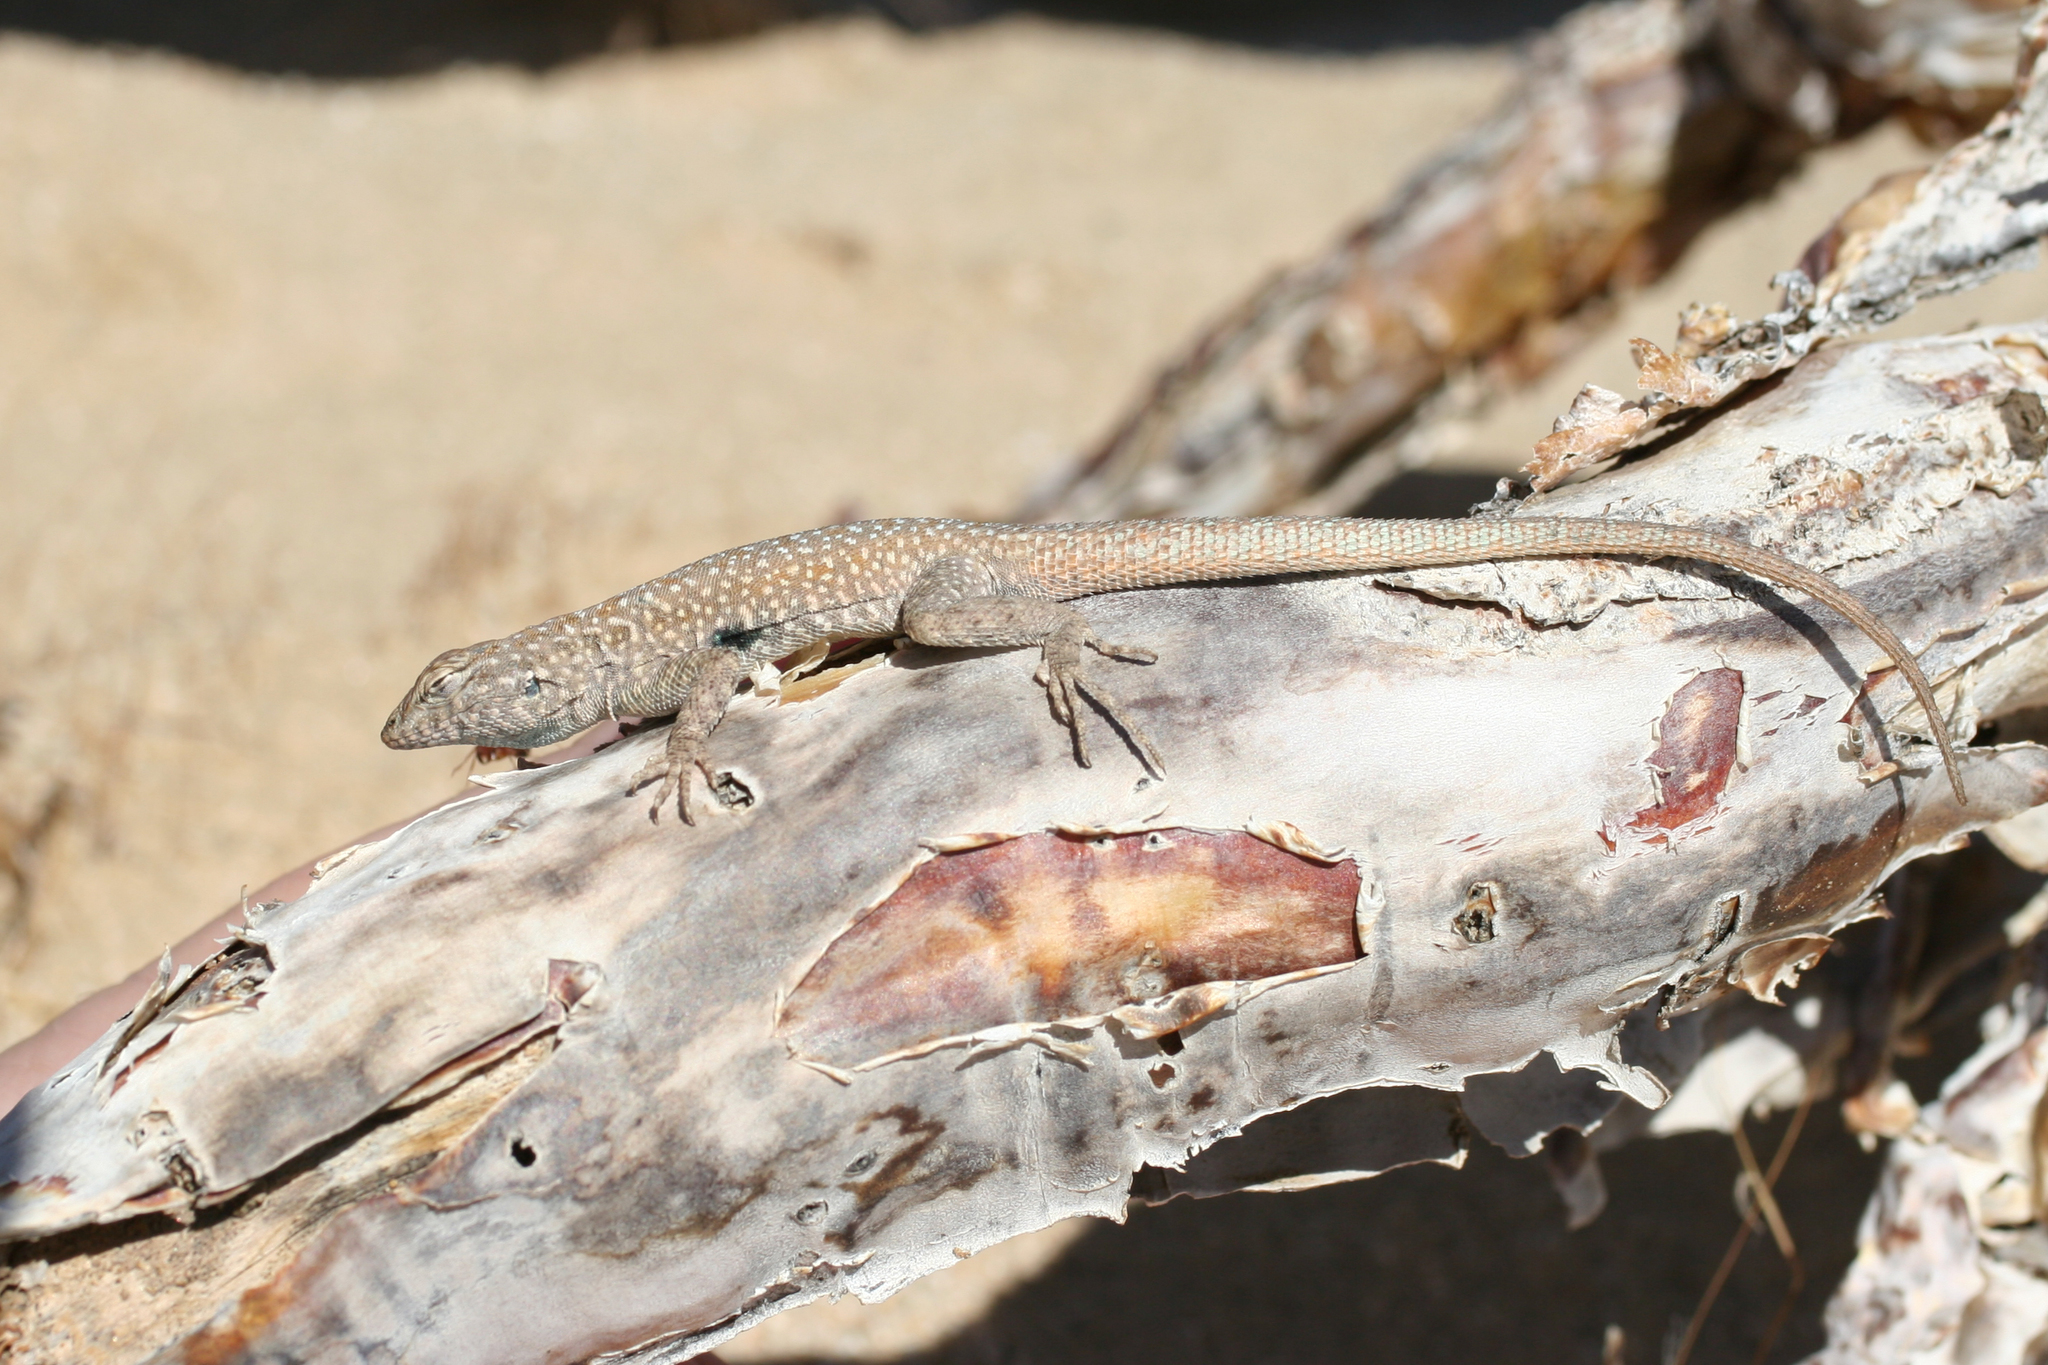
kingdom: Animalia
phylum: Chordata
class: Squamata
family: Phrynosomatidae
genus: Uta
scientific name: Uta stansburiana
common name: Side-blotched lizard
